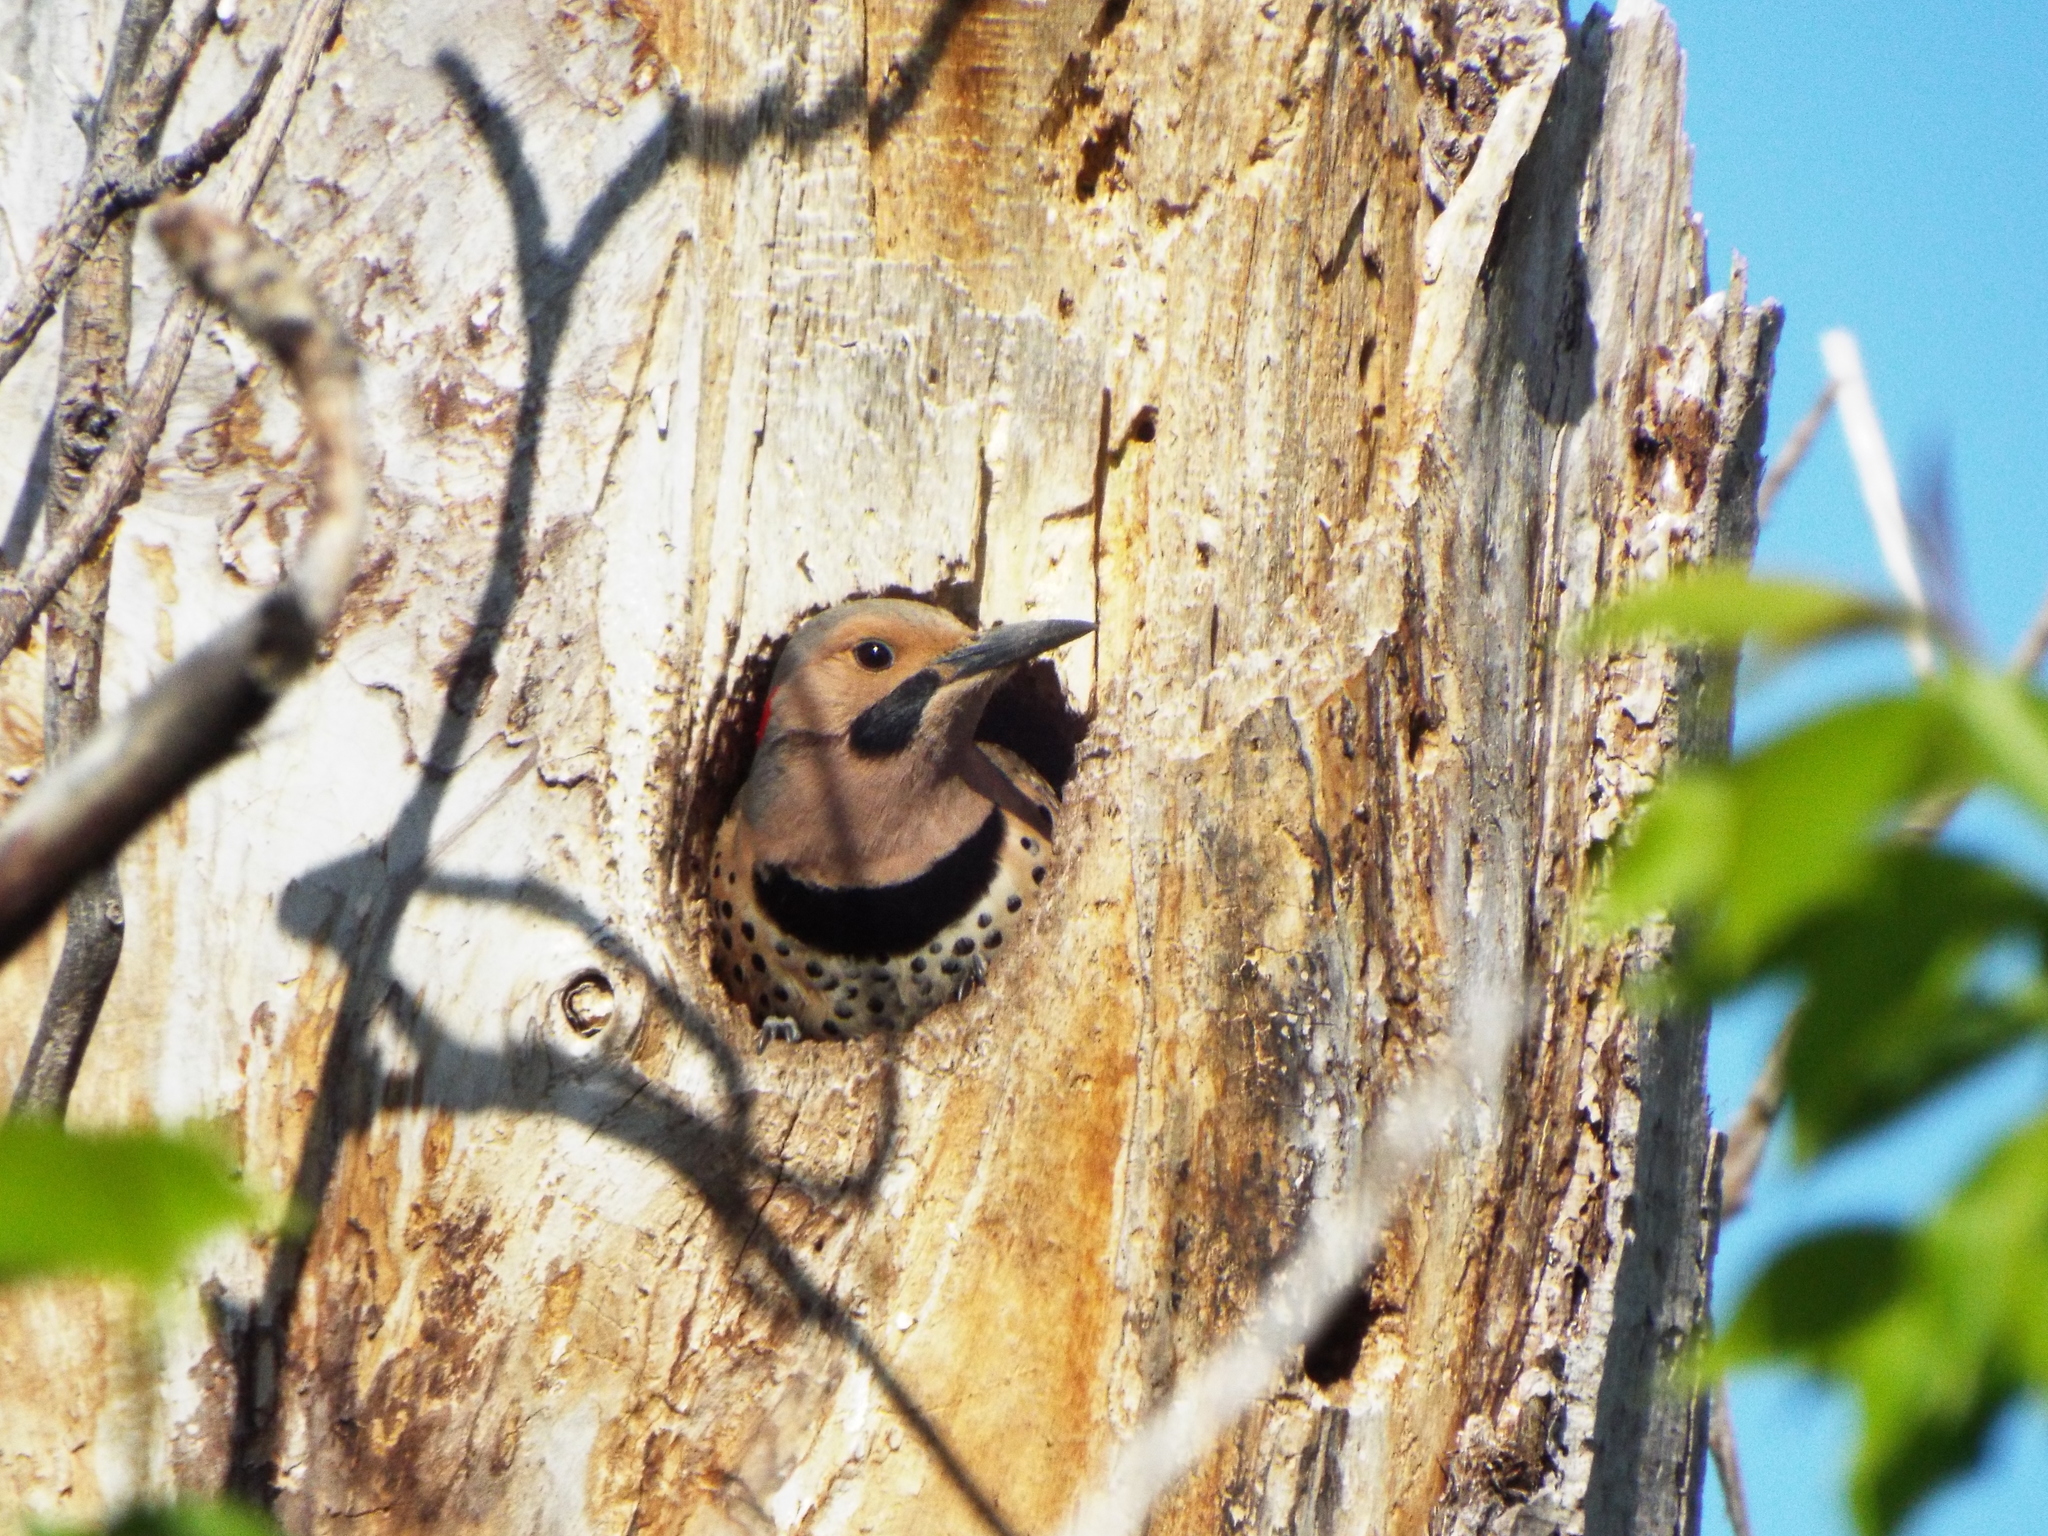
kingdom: Animalia
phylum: Chordata
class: Aves
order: Piciformes
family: Picidae
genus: Colaptes
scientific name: Colaptes auratus
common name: Northern flicker
